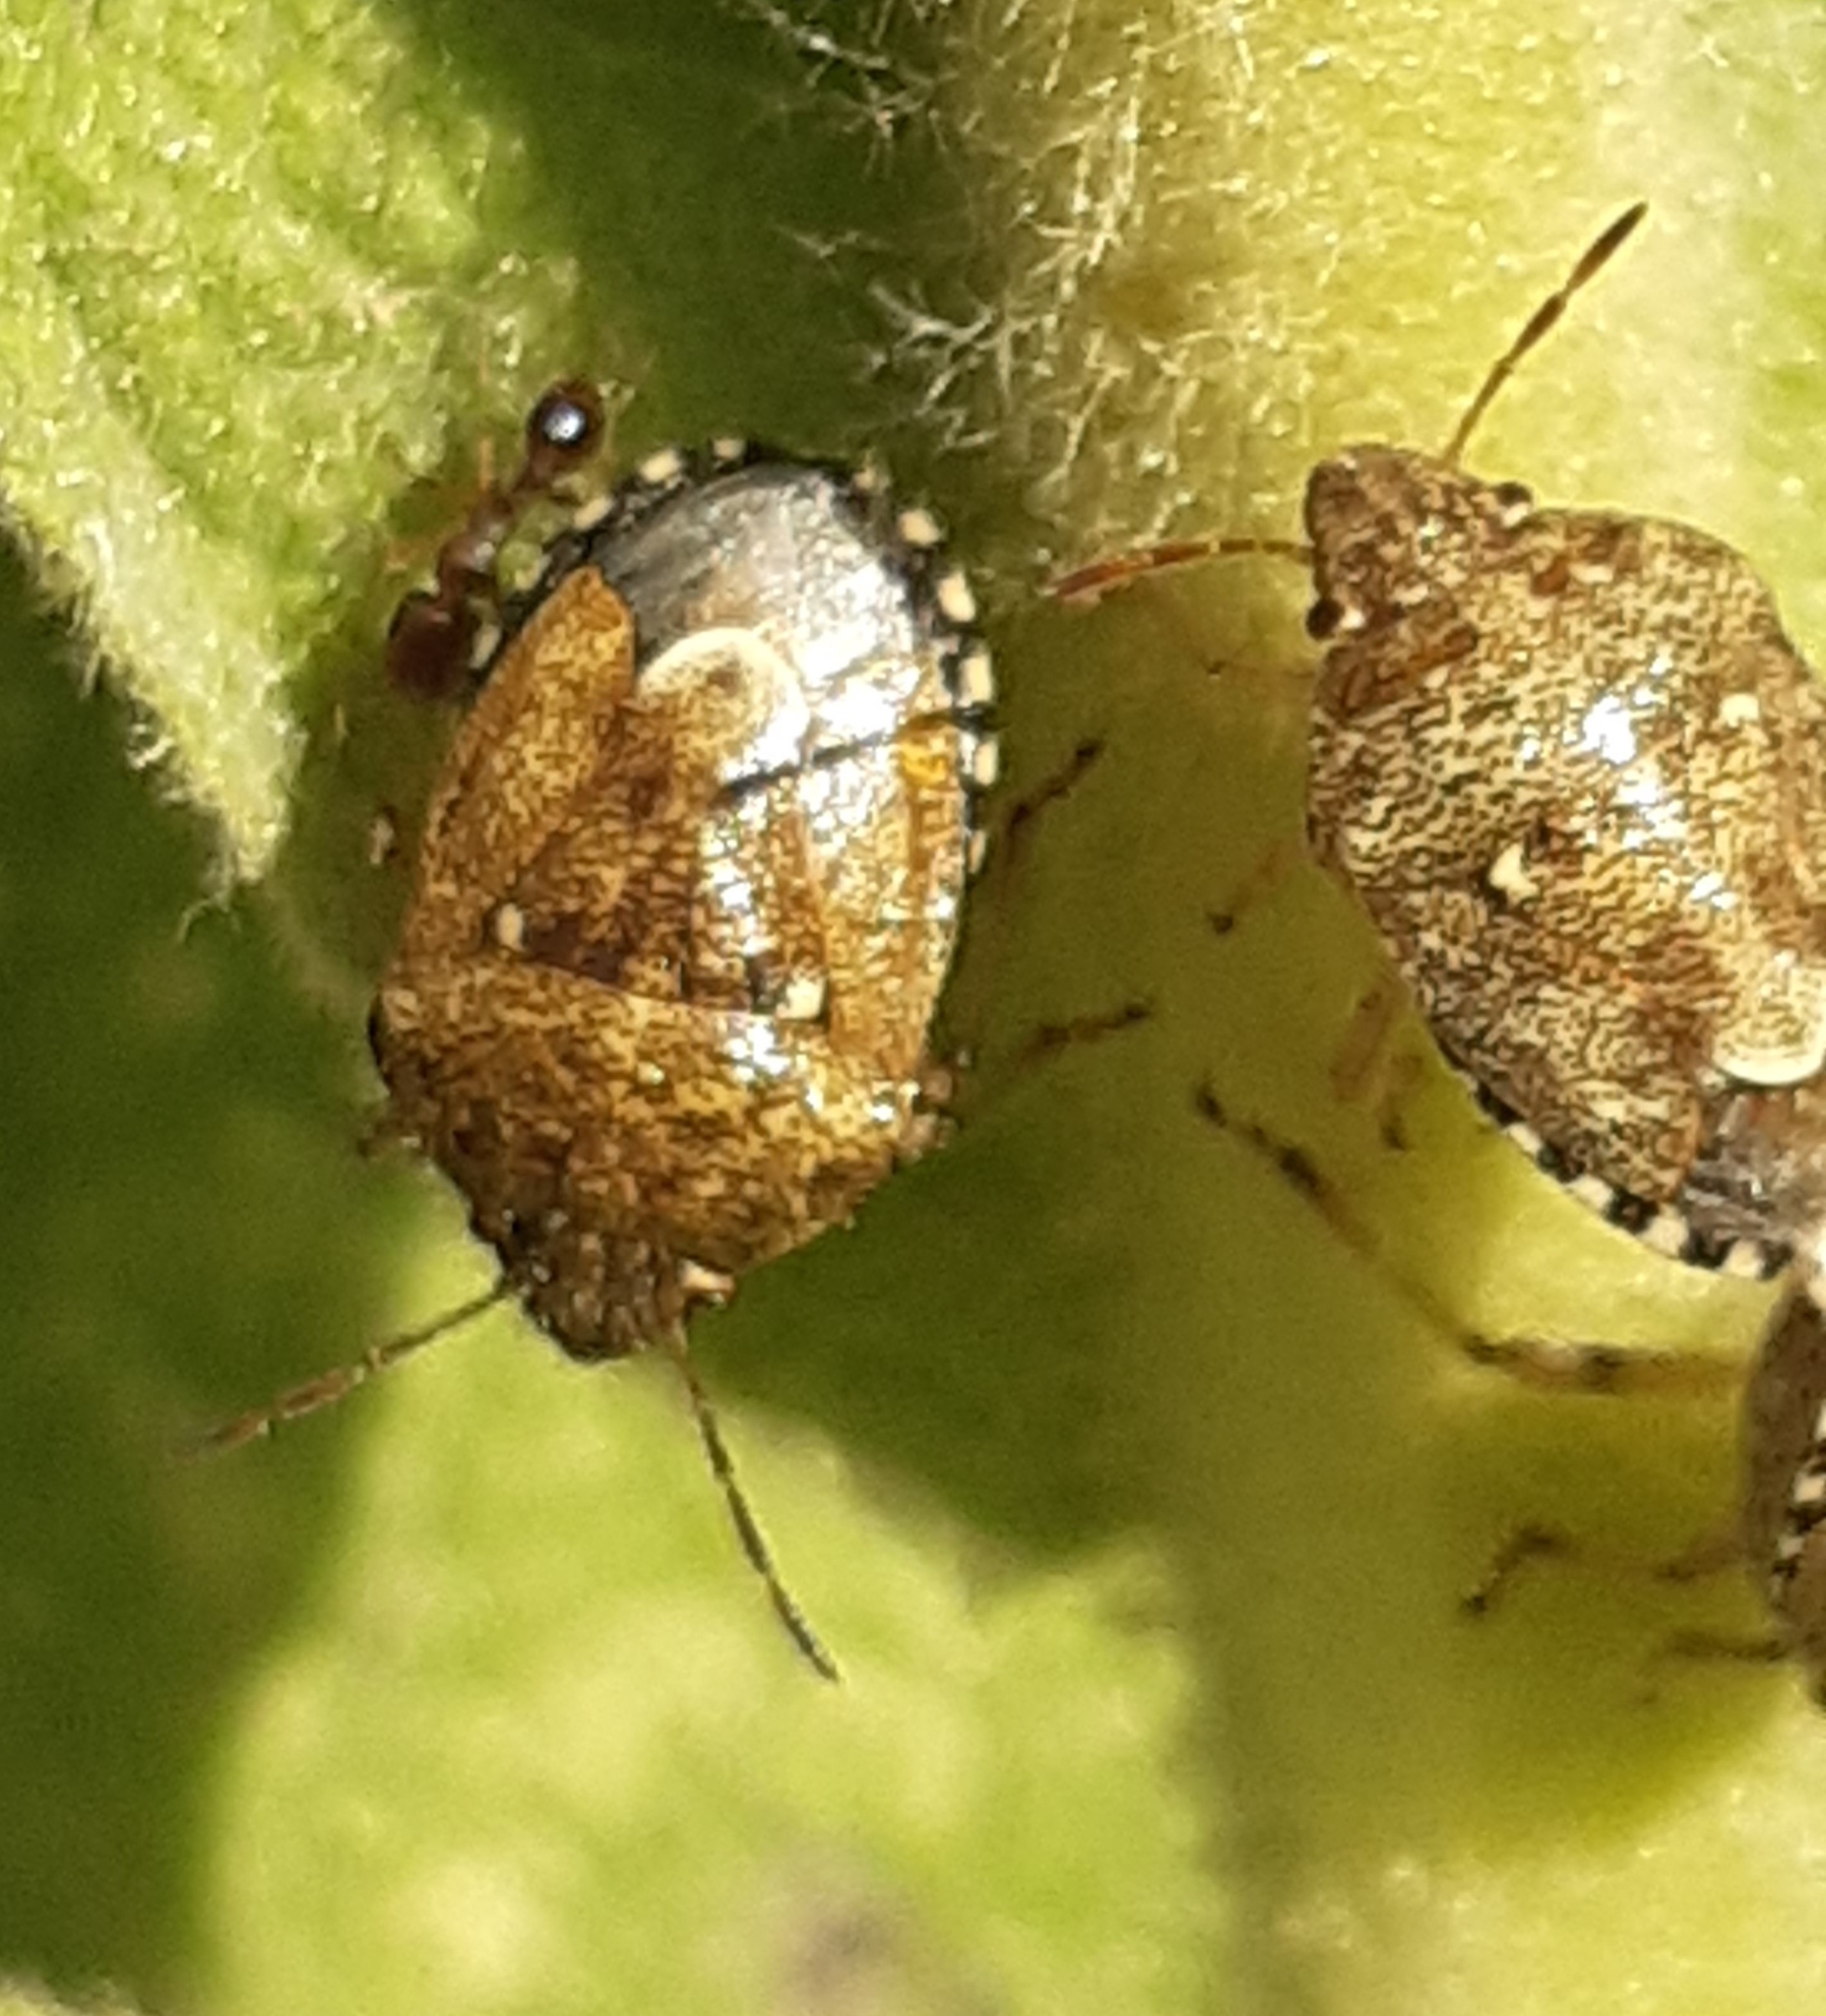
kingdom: Animalia
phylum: Arthropoda
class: Insecta
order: Hemiptera
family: Pentatomidae
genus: Staria
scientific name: Staria lunata
